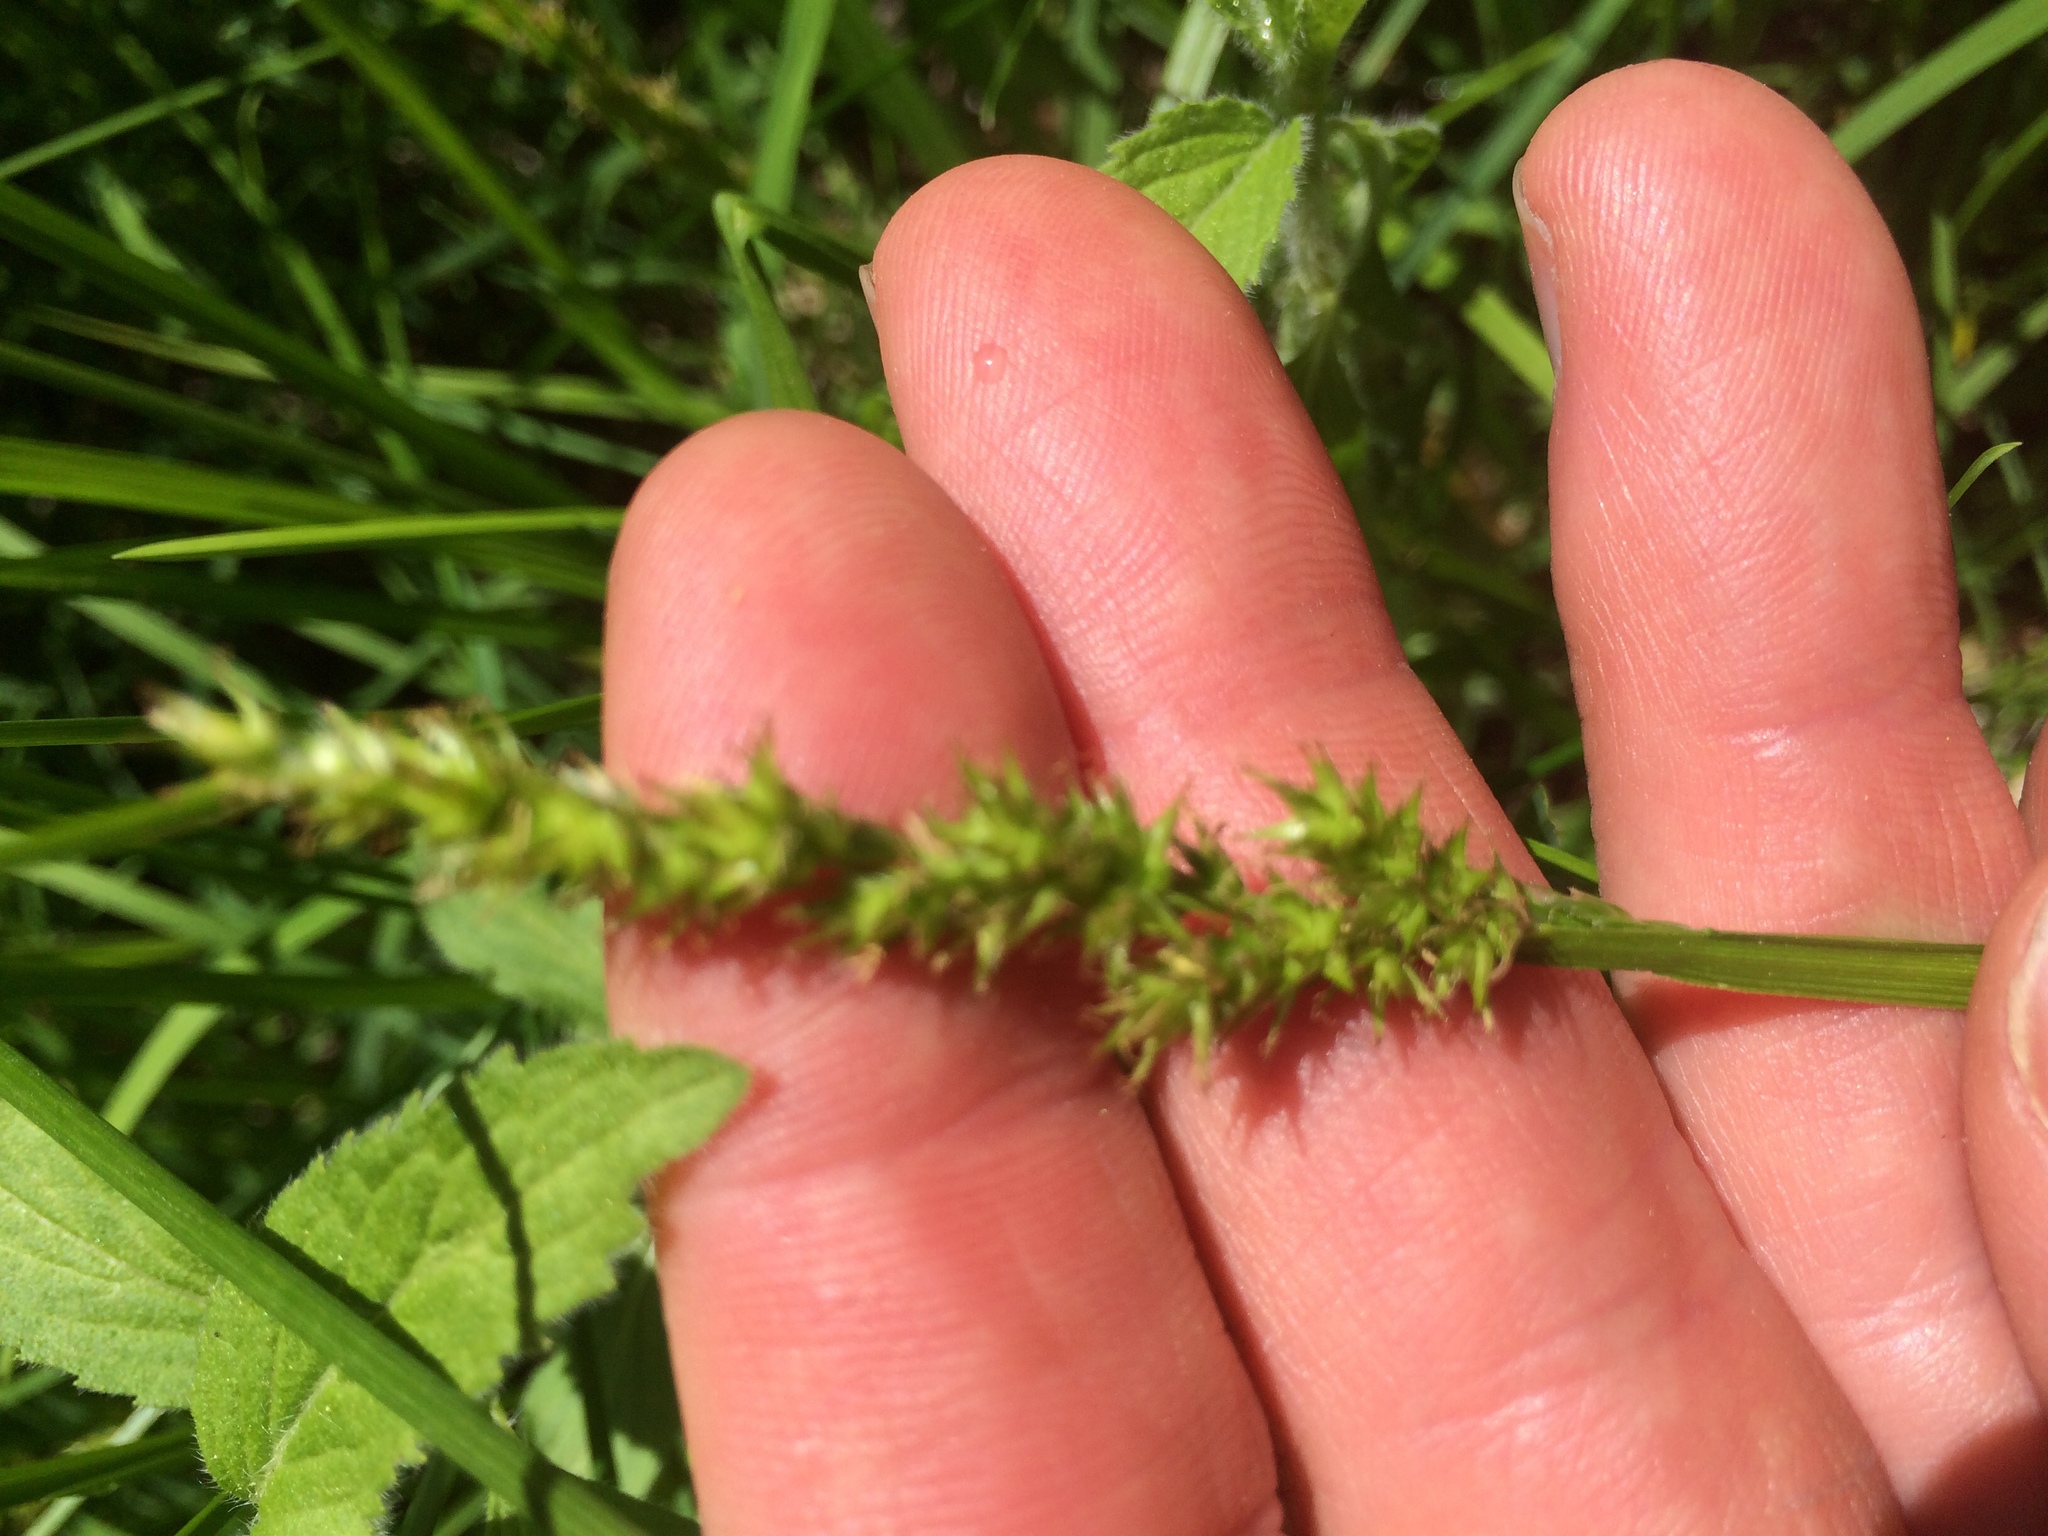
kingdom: Plantae
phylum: Tracheophyta
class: Liliopsida
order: Poales
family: Cyperaceae
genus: Carex
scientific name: Carex stipata
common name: Awl-fruited sedge
